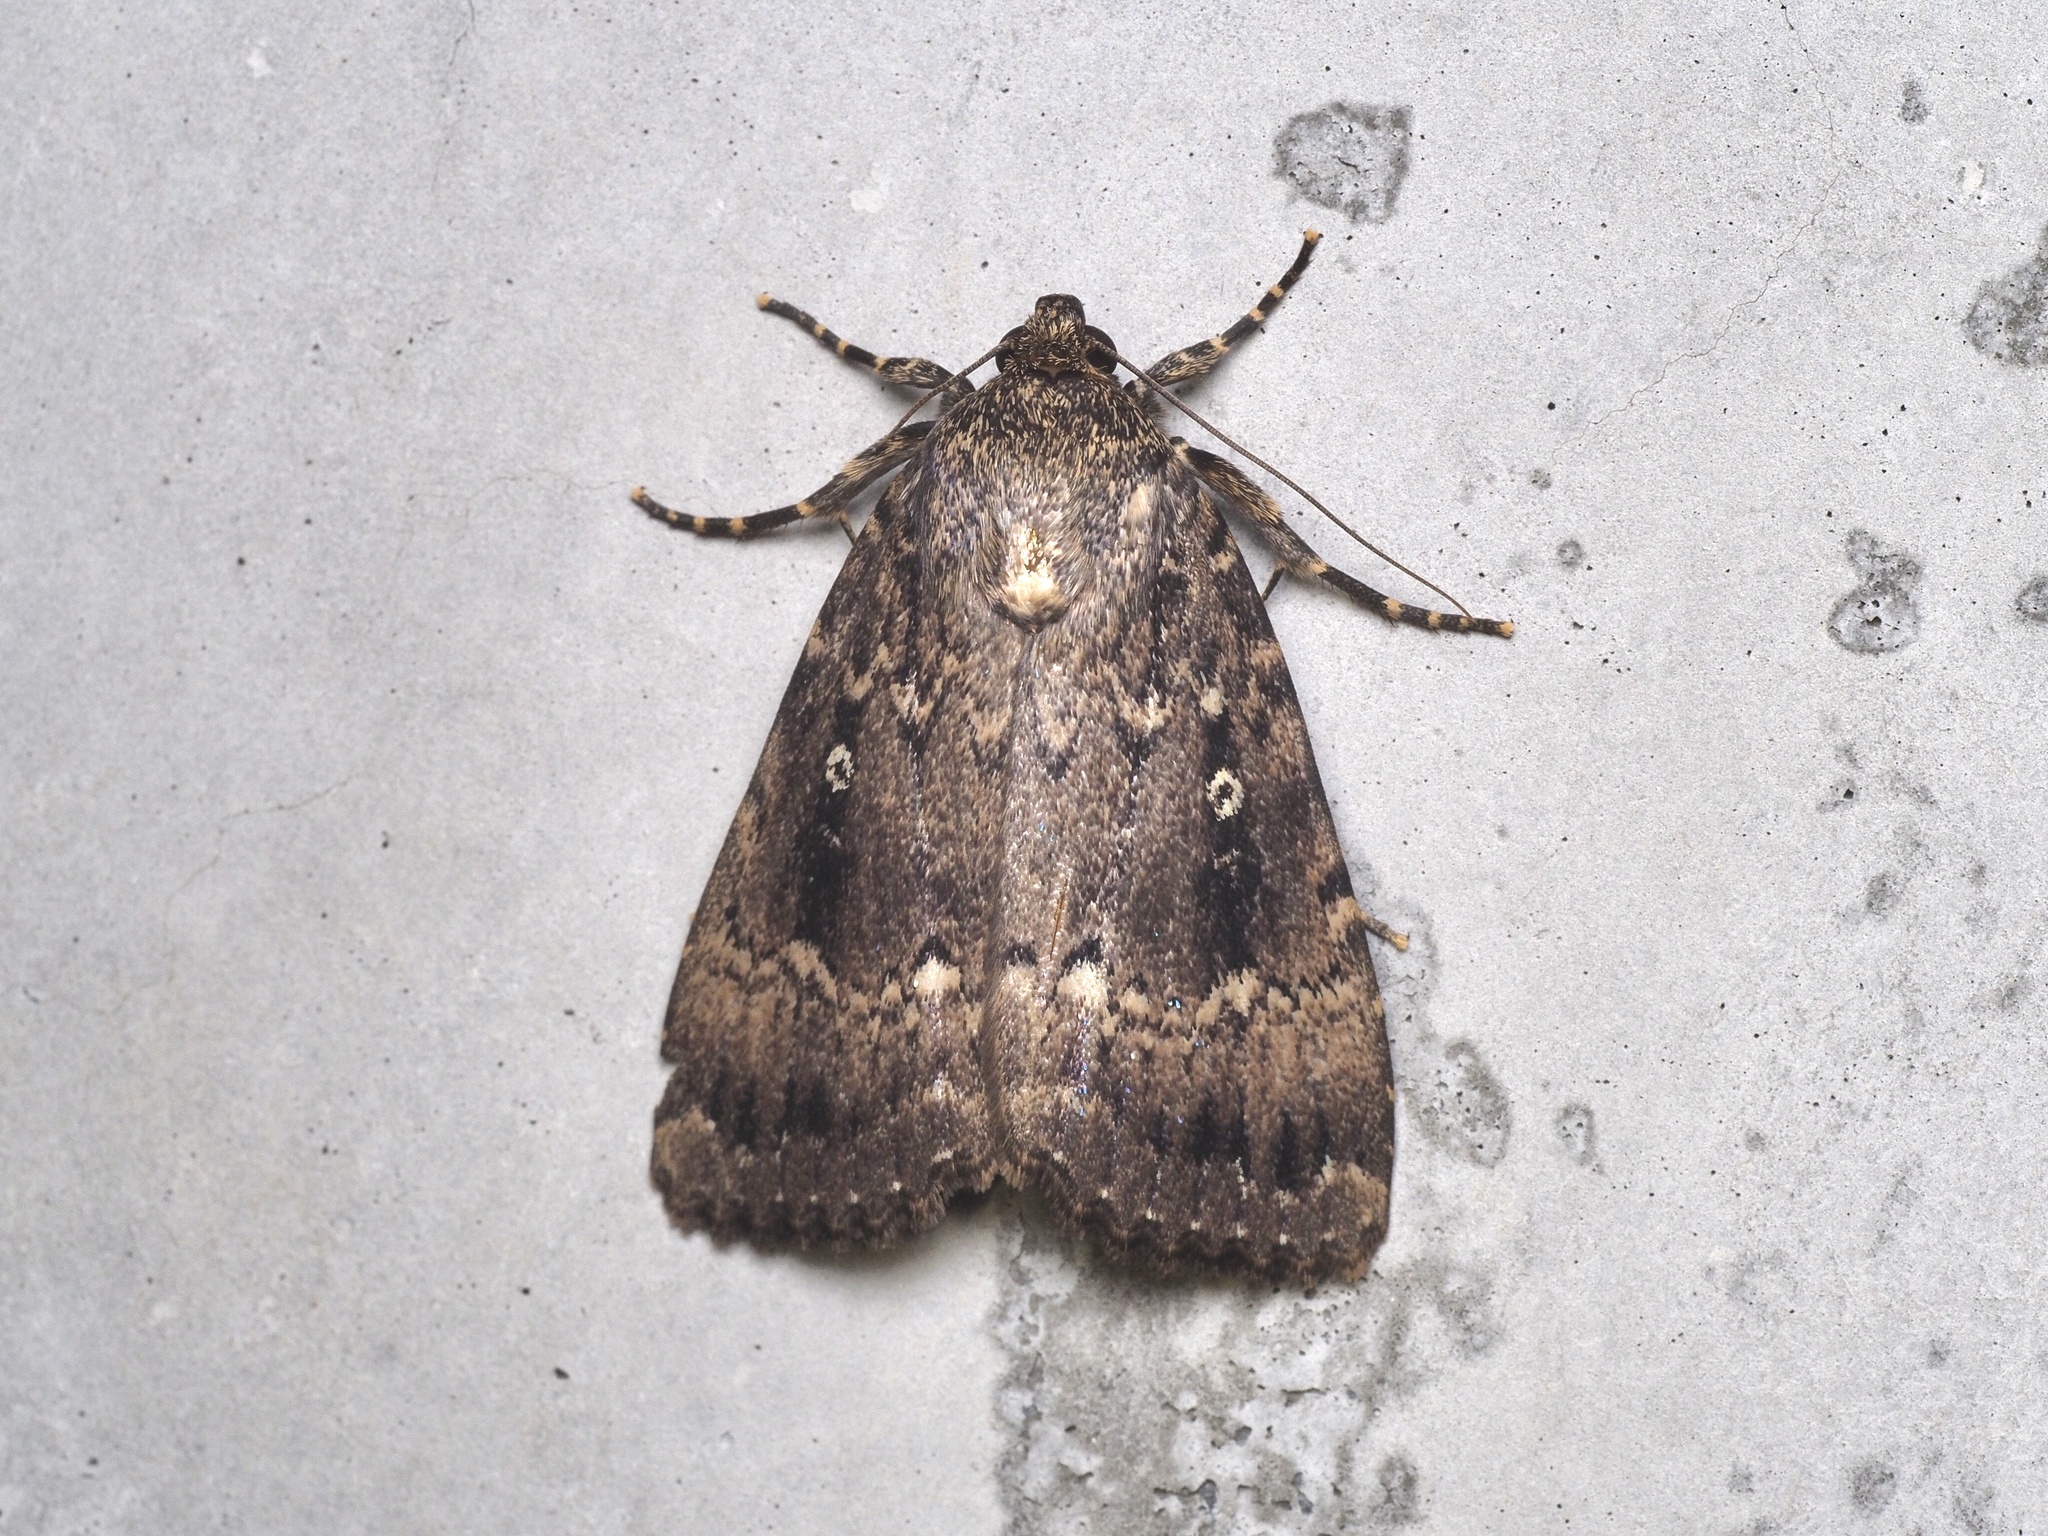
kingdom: Animalia
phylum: Arthropoda
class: Insecta
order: Lepidoptera
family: Noctuidae
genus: Amphipyra
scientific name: Amphipyra pyramidea
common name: Copper underwing
